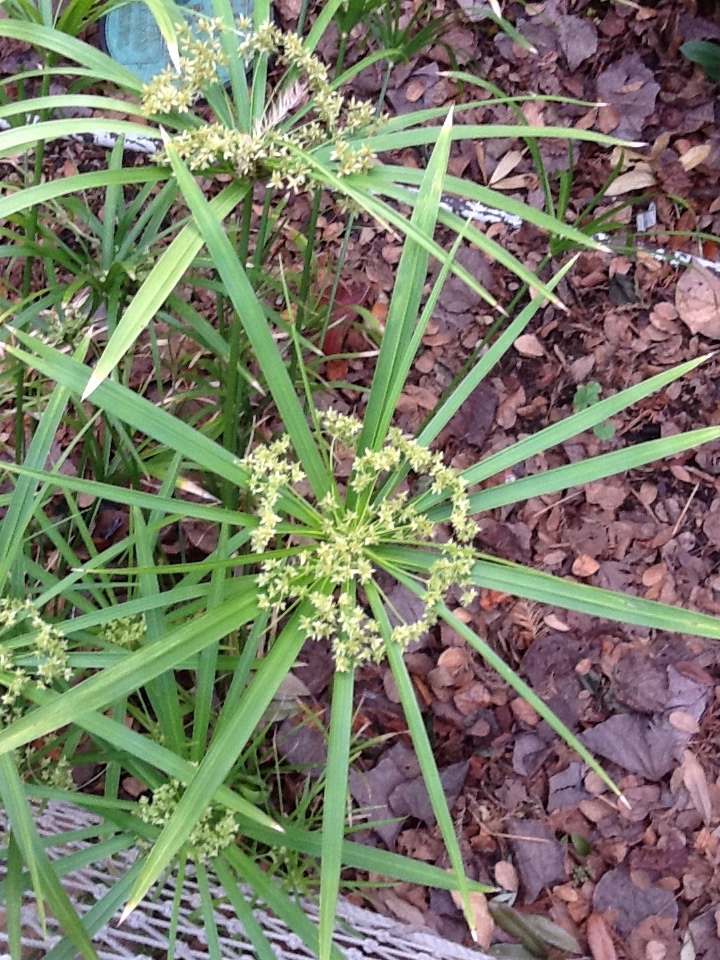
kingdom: Plantae
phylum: Tracheophyta
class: Liliopsida
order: Poales
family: Cyperaceae
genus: Cyperus
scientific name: Cyperus alternifolius
